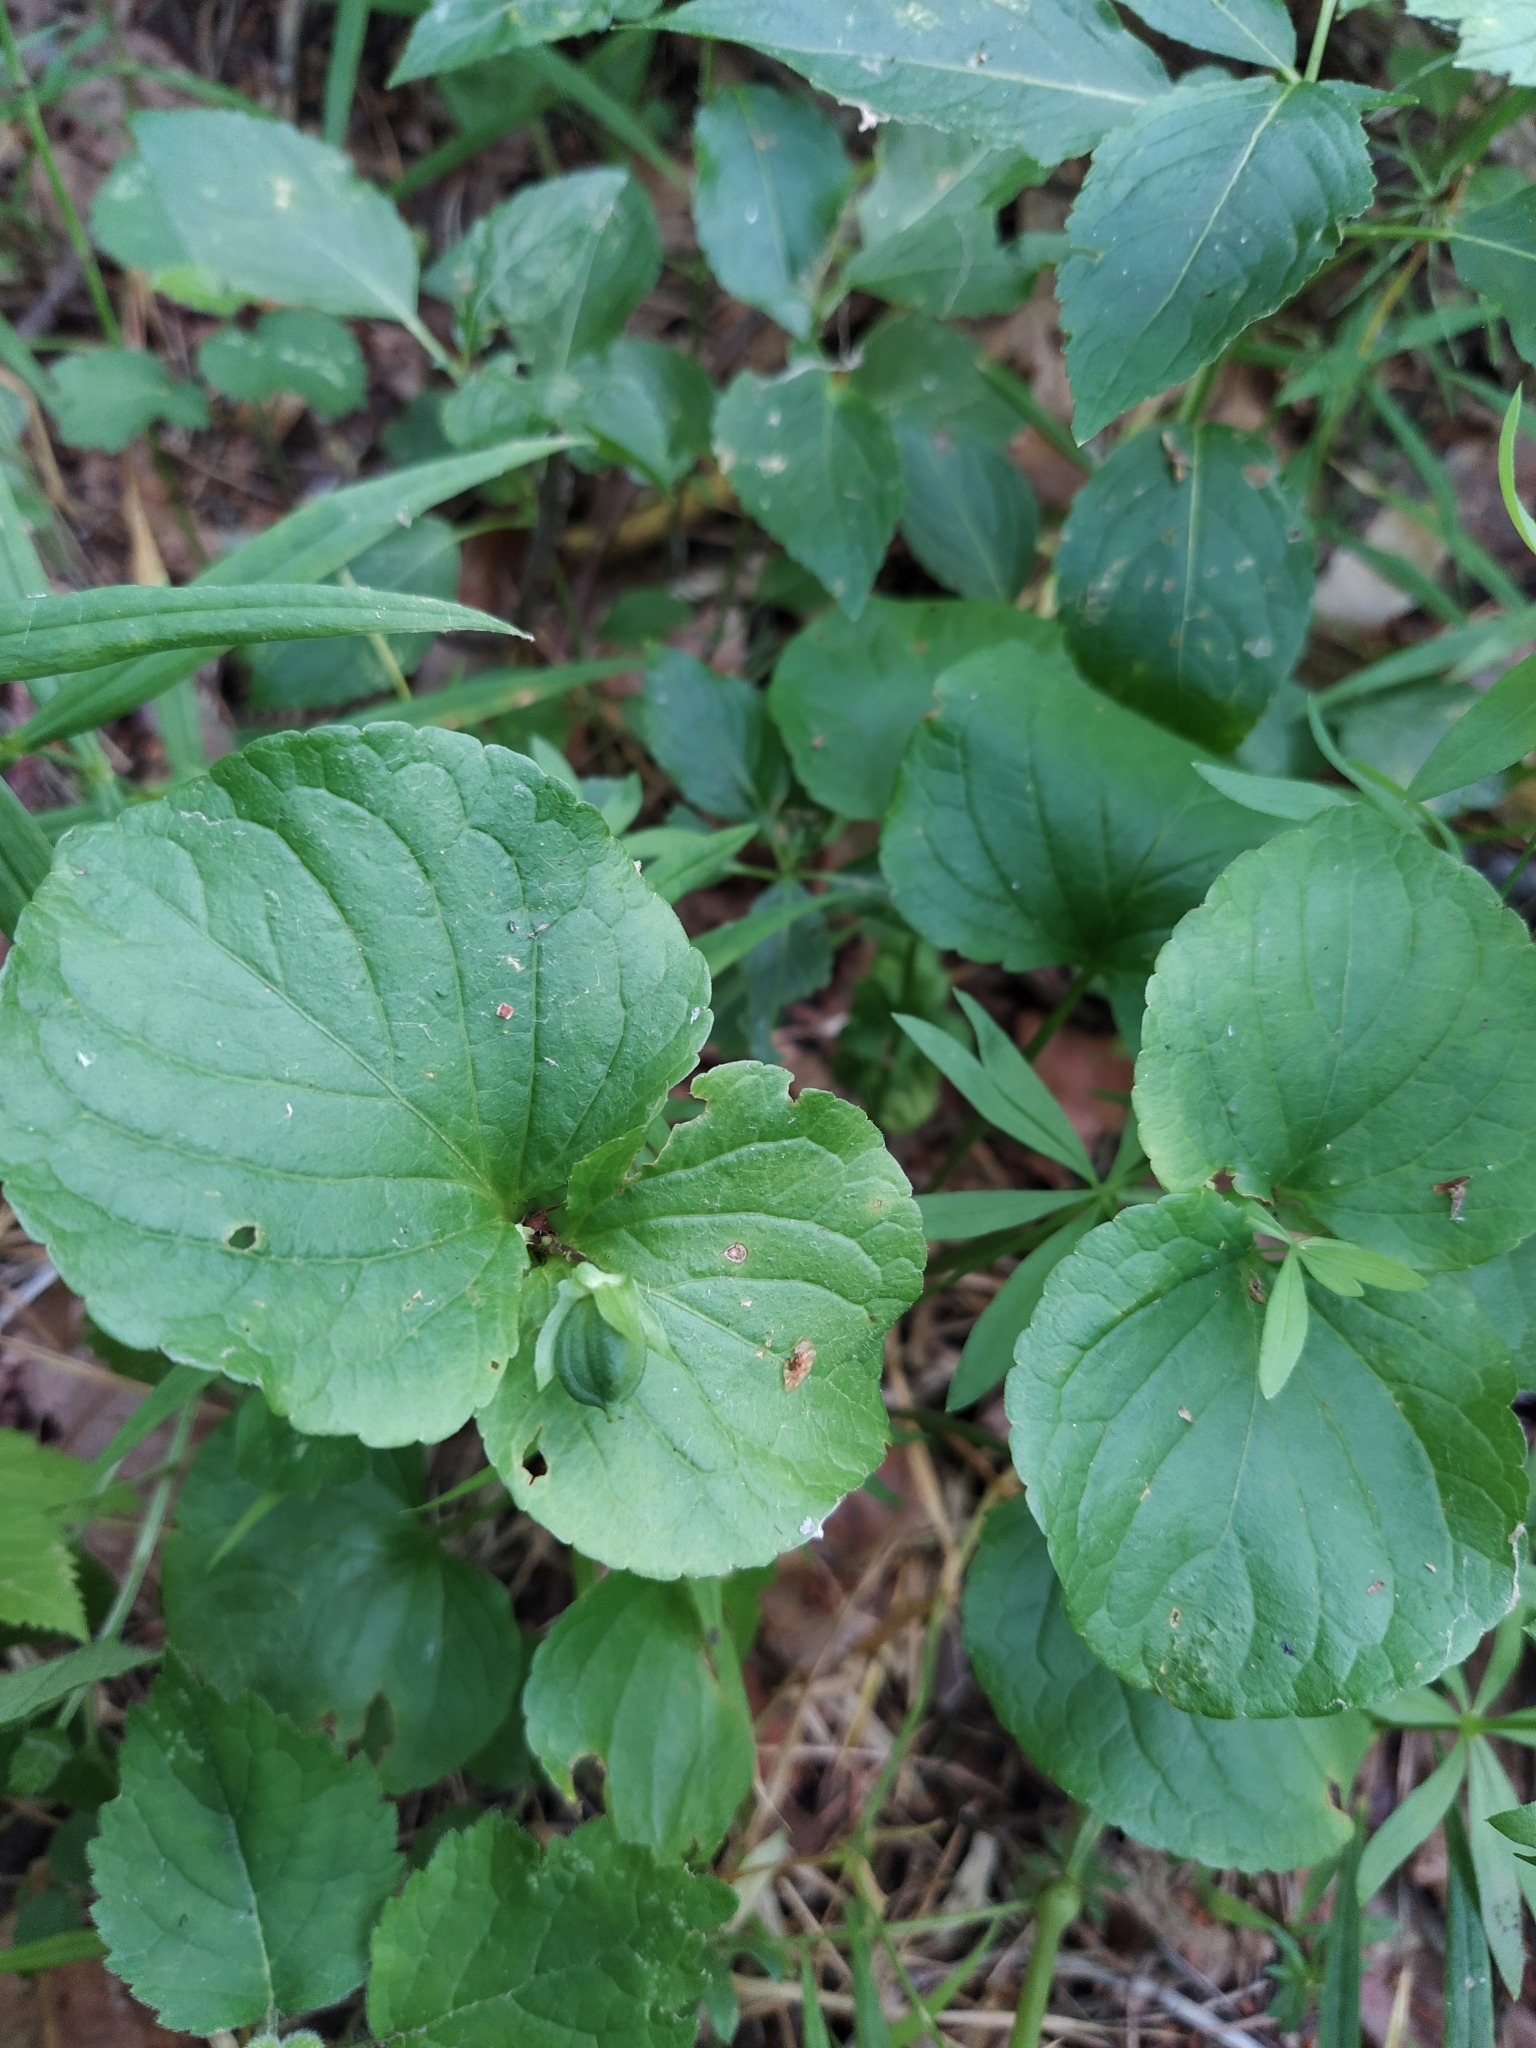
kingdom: Plantae
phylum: Tracheophyta
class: Magnoliopsida
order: Malpighiales
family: Violaceae
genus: Viola
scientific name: Viola mirabilis
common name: Wonder violet
